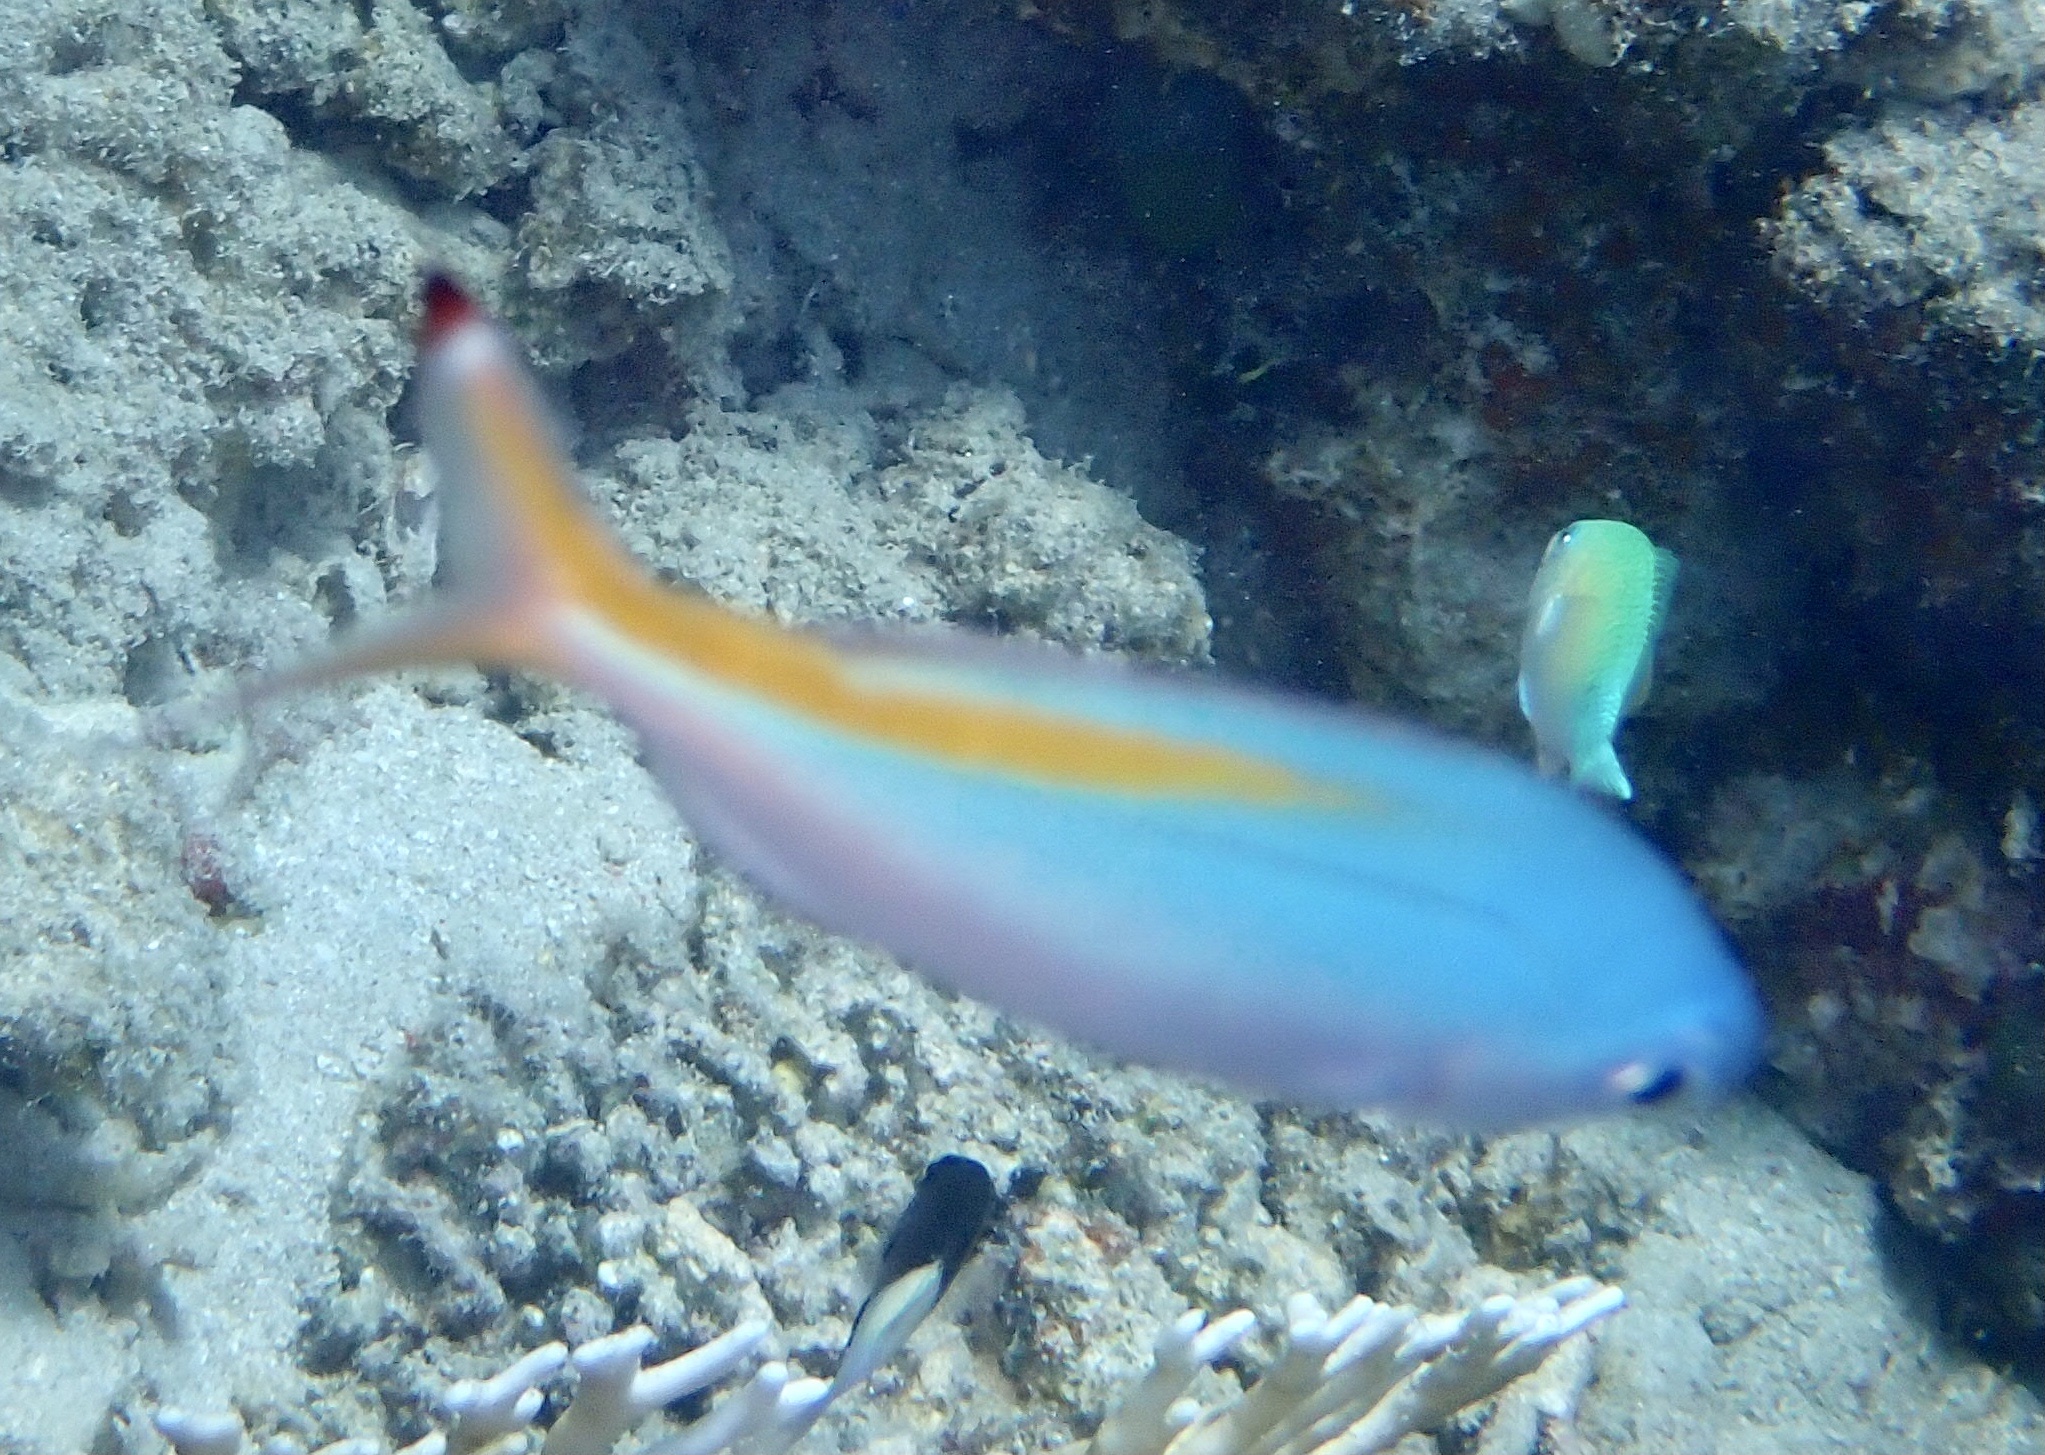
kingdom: Animalia
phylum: Chordata
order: Perciformes
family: Caesionidae
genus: Caesio
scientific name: Caesio suevica
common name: Suez fusilier
